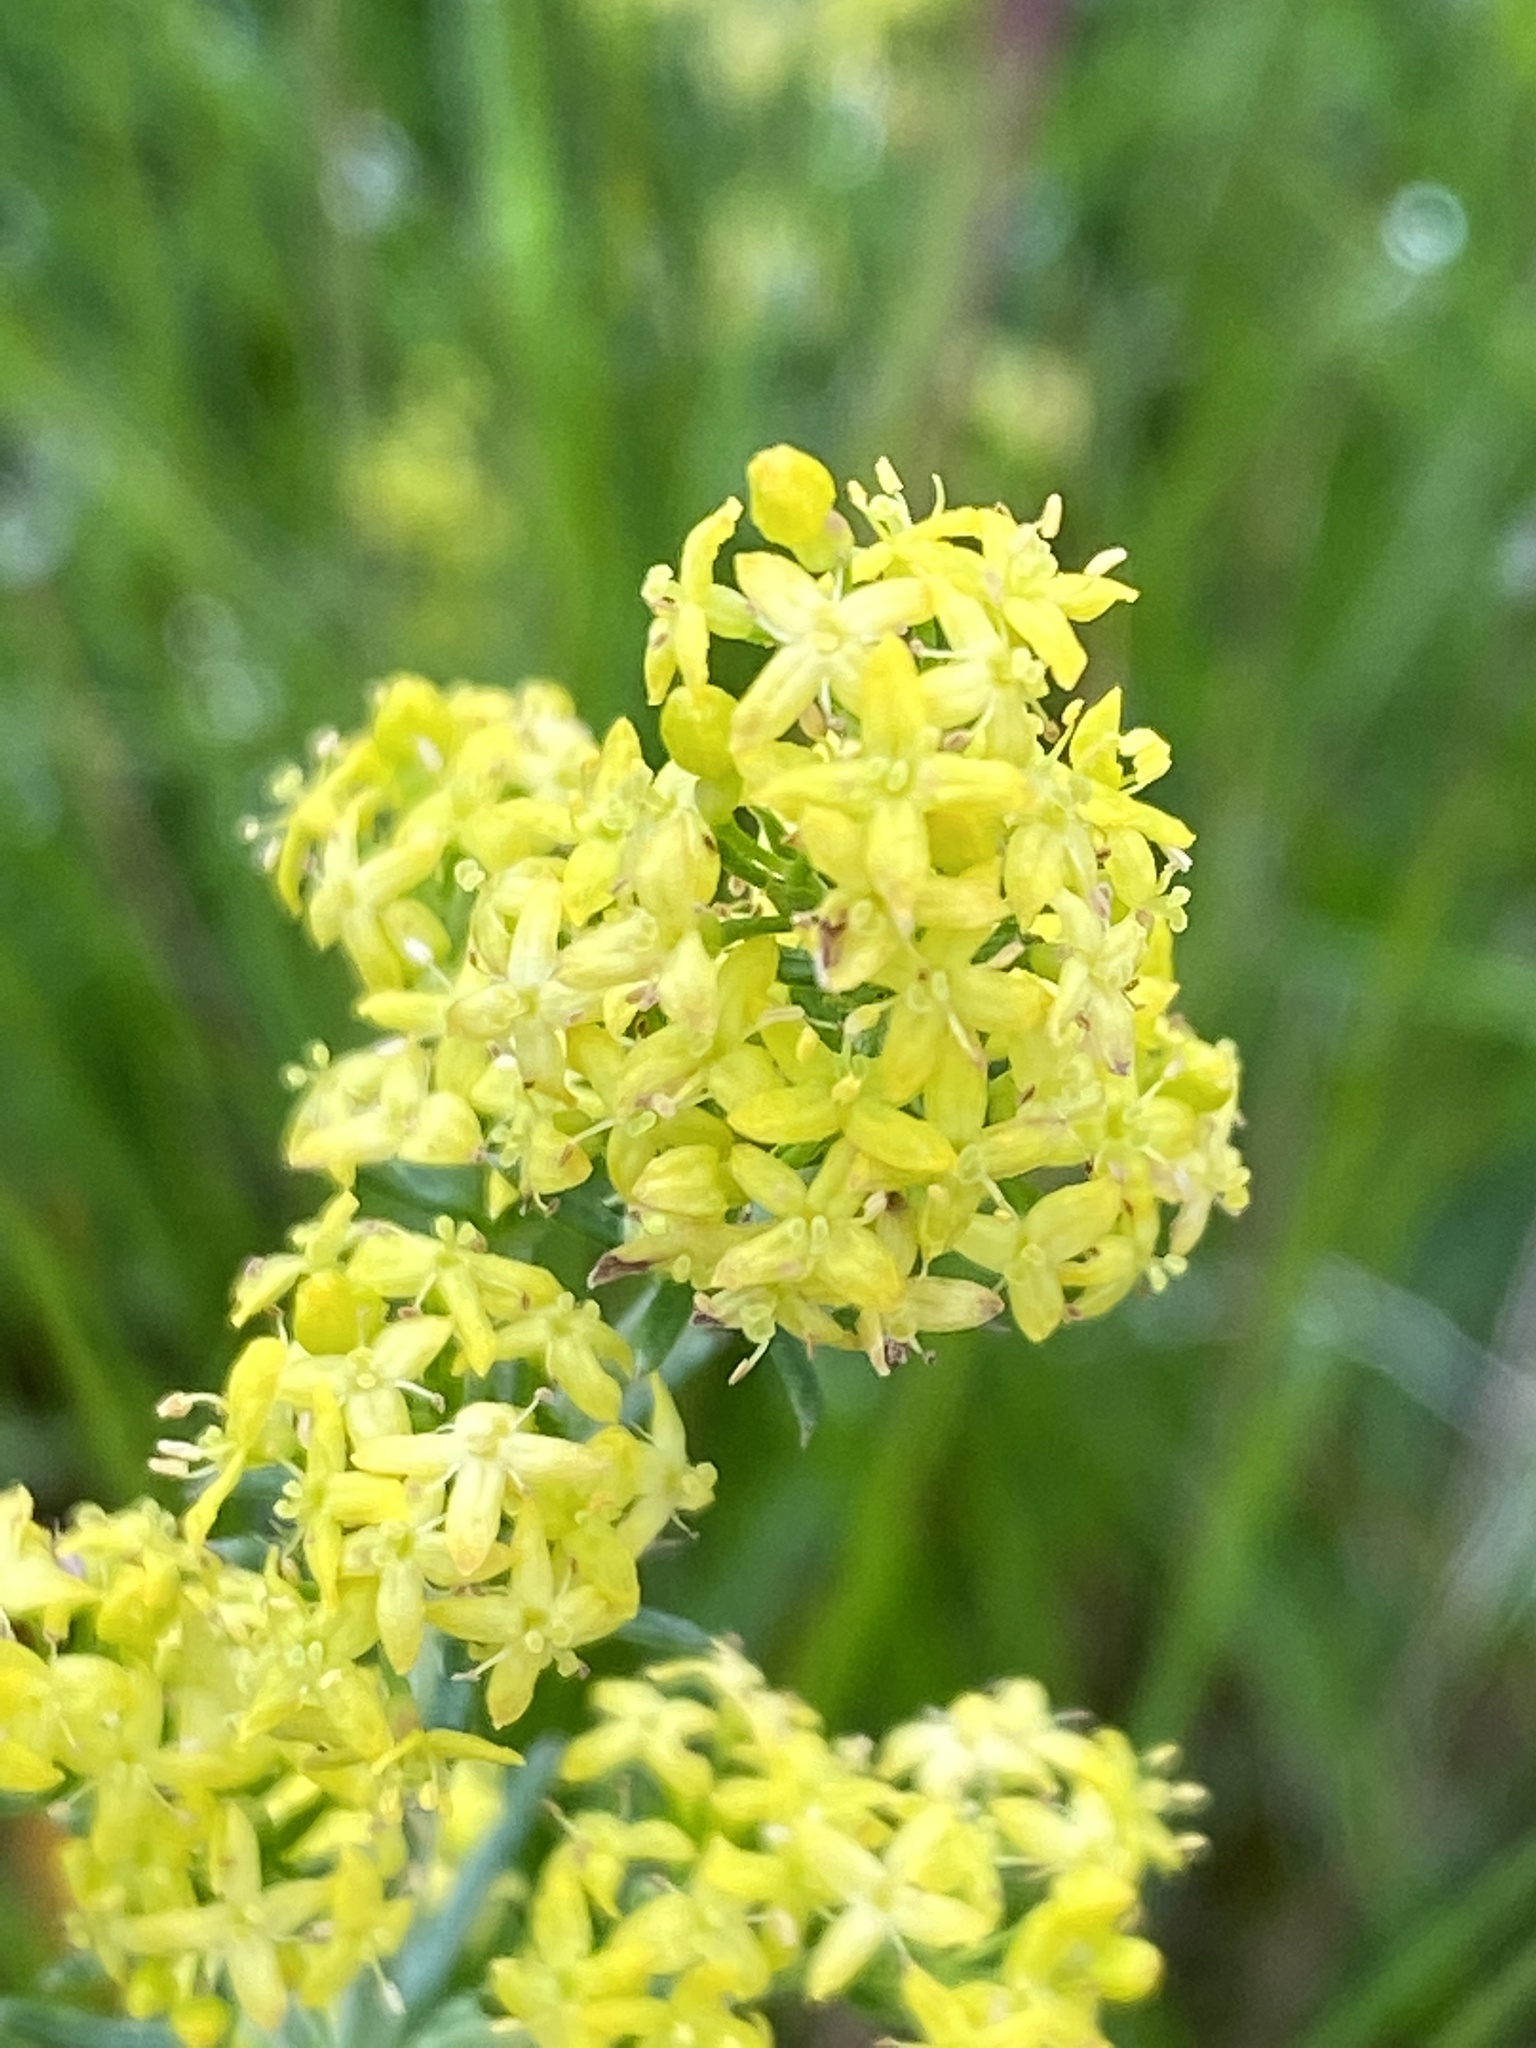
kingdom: Plantae
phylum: Tracheophyta
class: Magnoliopsida
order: Gentianales
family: Rubiaceae
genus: Galium
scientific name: Galium verum
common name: Lady's bedstraw
